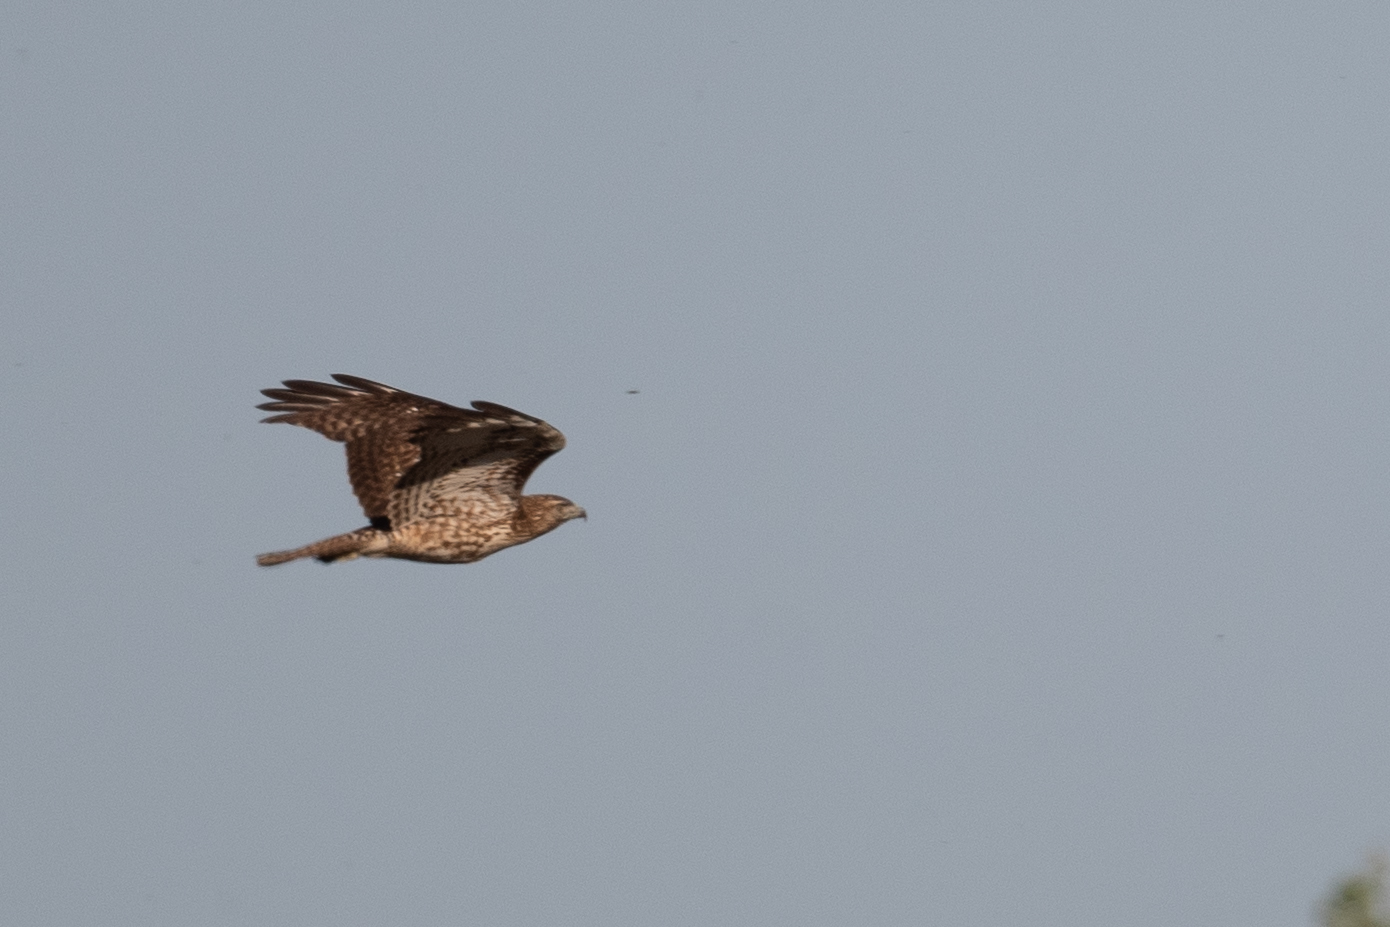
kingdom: Animalia
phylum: Chordata
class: Aves
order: Accipitriformes
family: Accipitridae
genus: Buteo
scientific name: Buteo jamaicensis
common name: Red-tailed hawk
